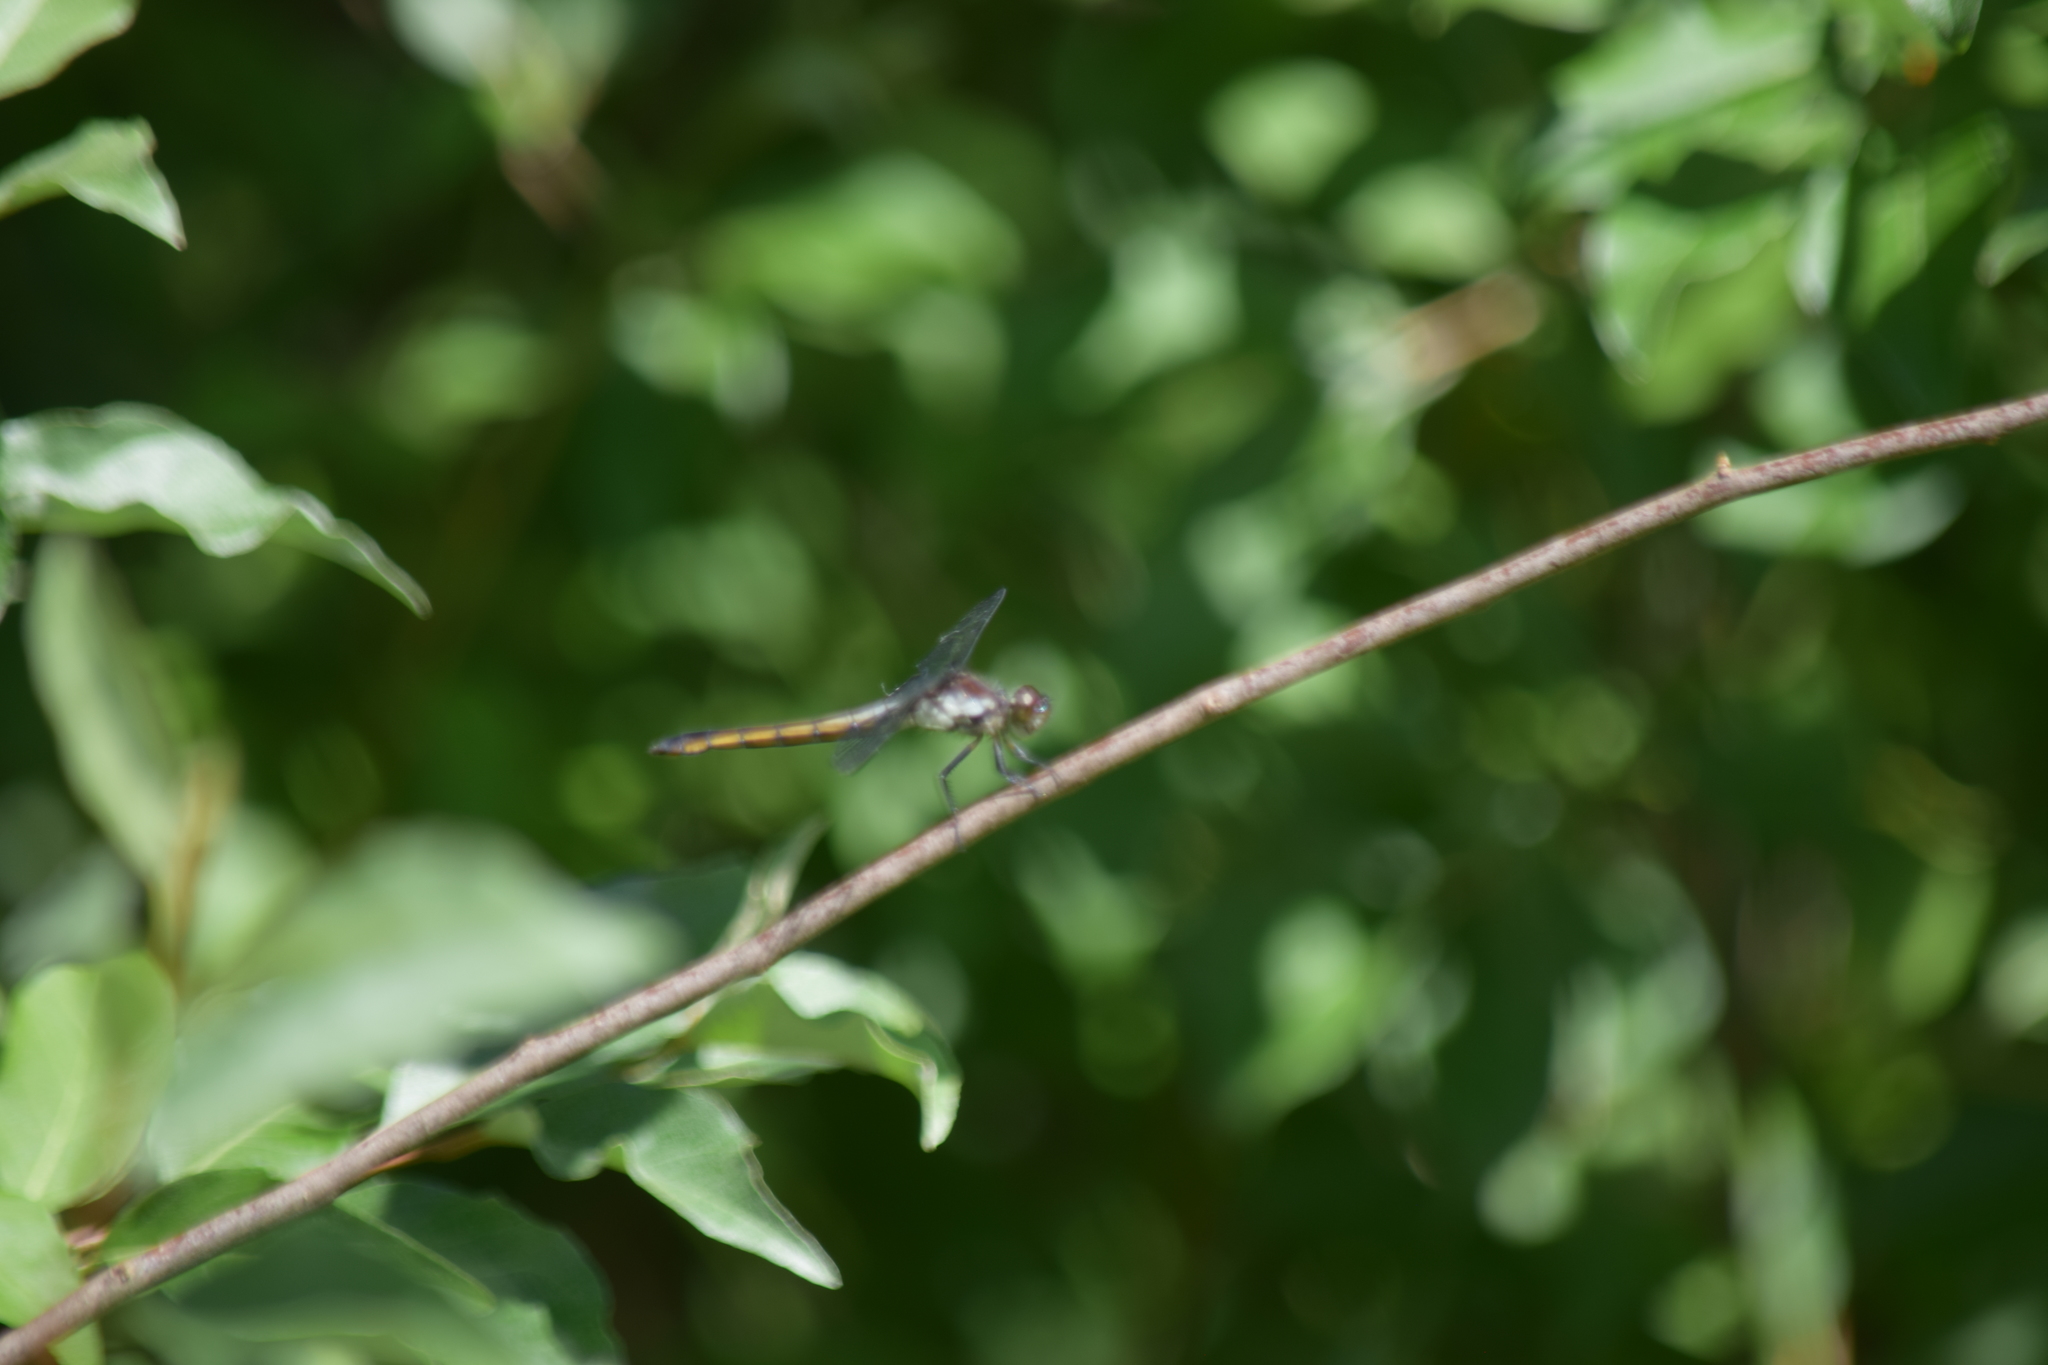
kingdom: Animalia
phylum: Arthropoda
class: Insecta
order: Odonata
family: Libellulidae
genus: Libellula
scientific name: Libellula incesta
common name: Slaty skimmer
